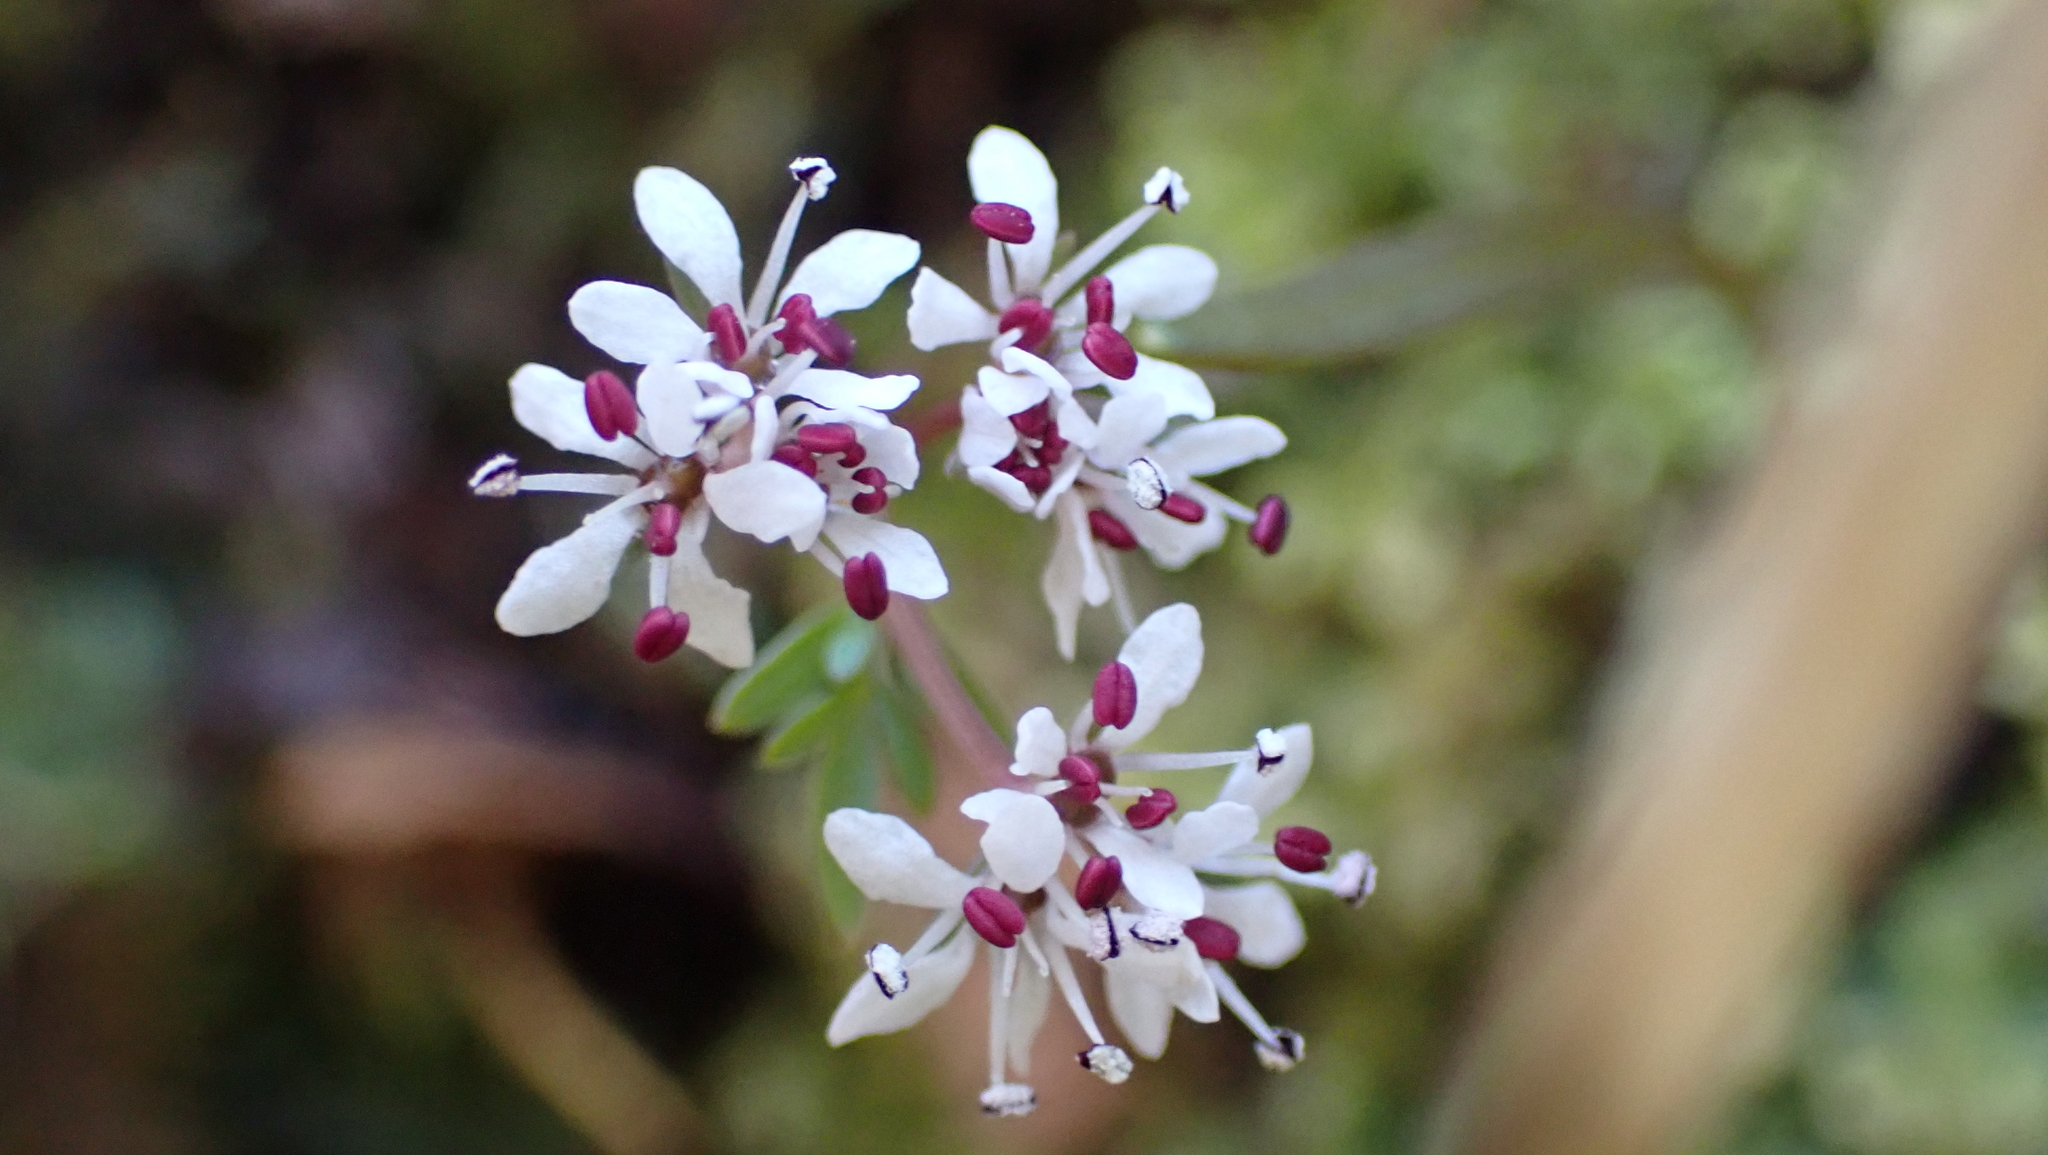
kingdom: Plantae
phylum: Tracheophyta
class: Magnoliopsida
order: Apiales
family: Apiaceae
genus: Erigenia
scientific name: Erigenia bulbosa
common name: Pepper-and-salt
